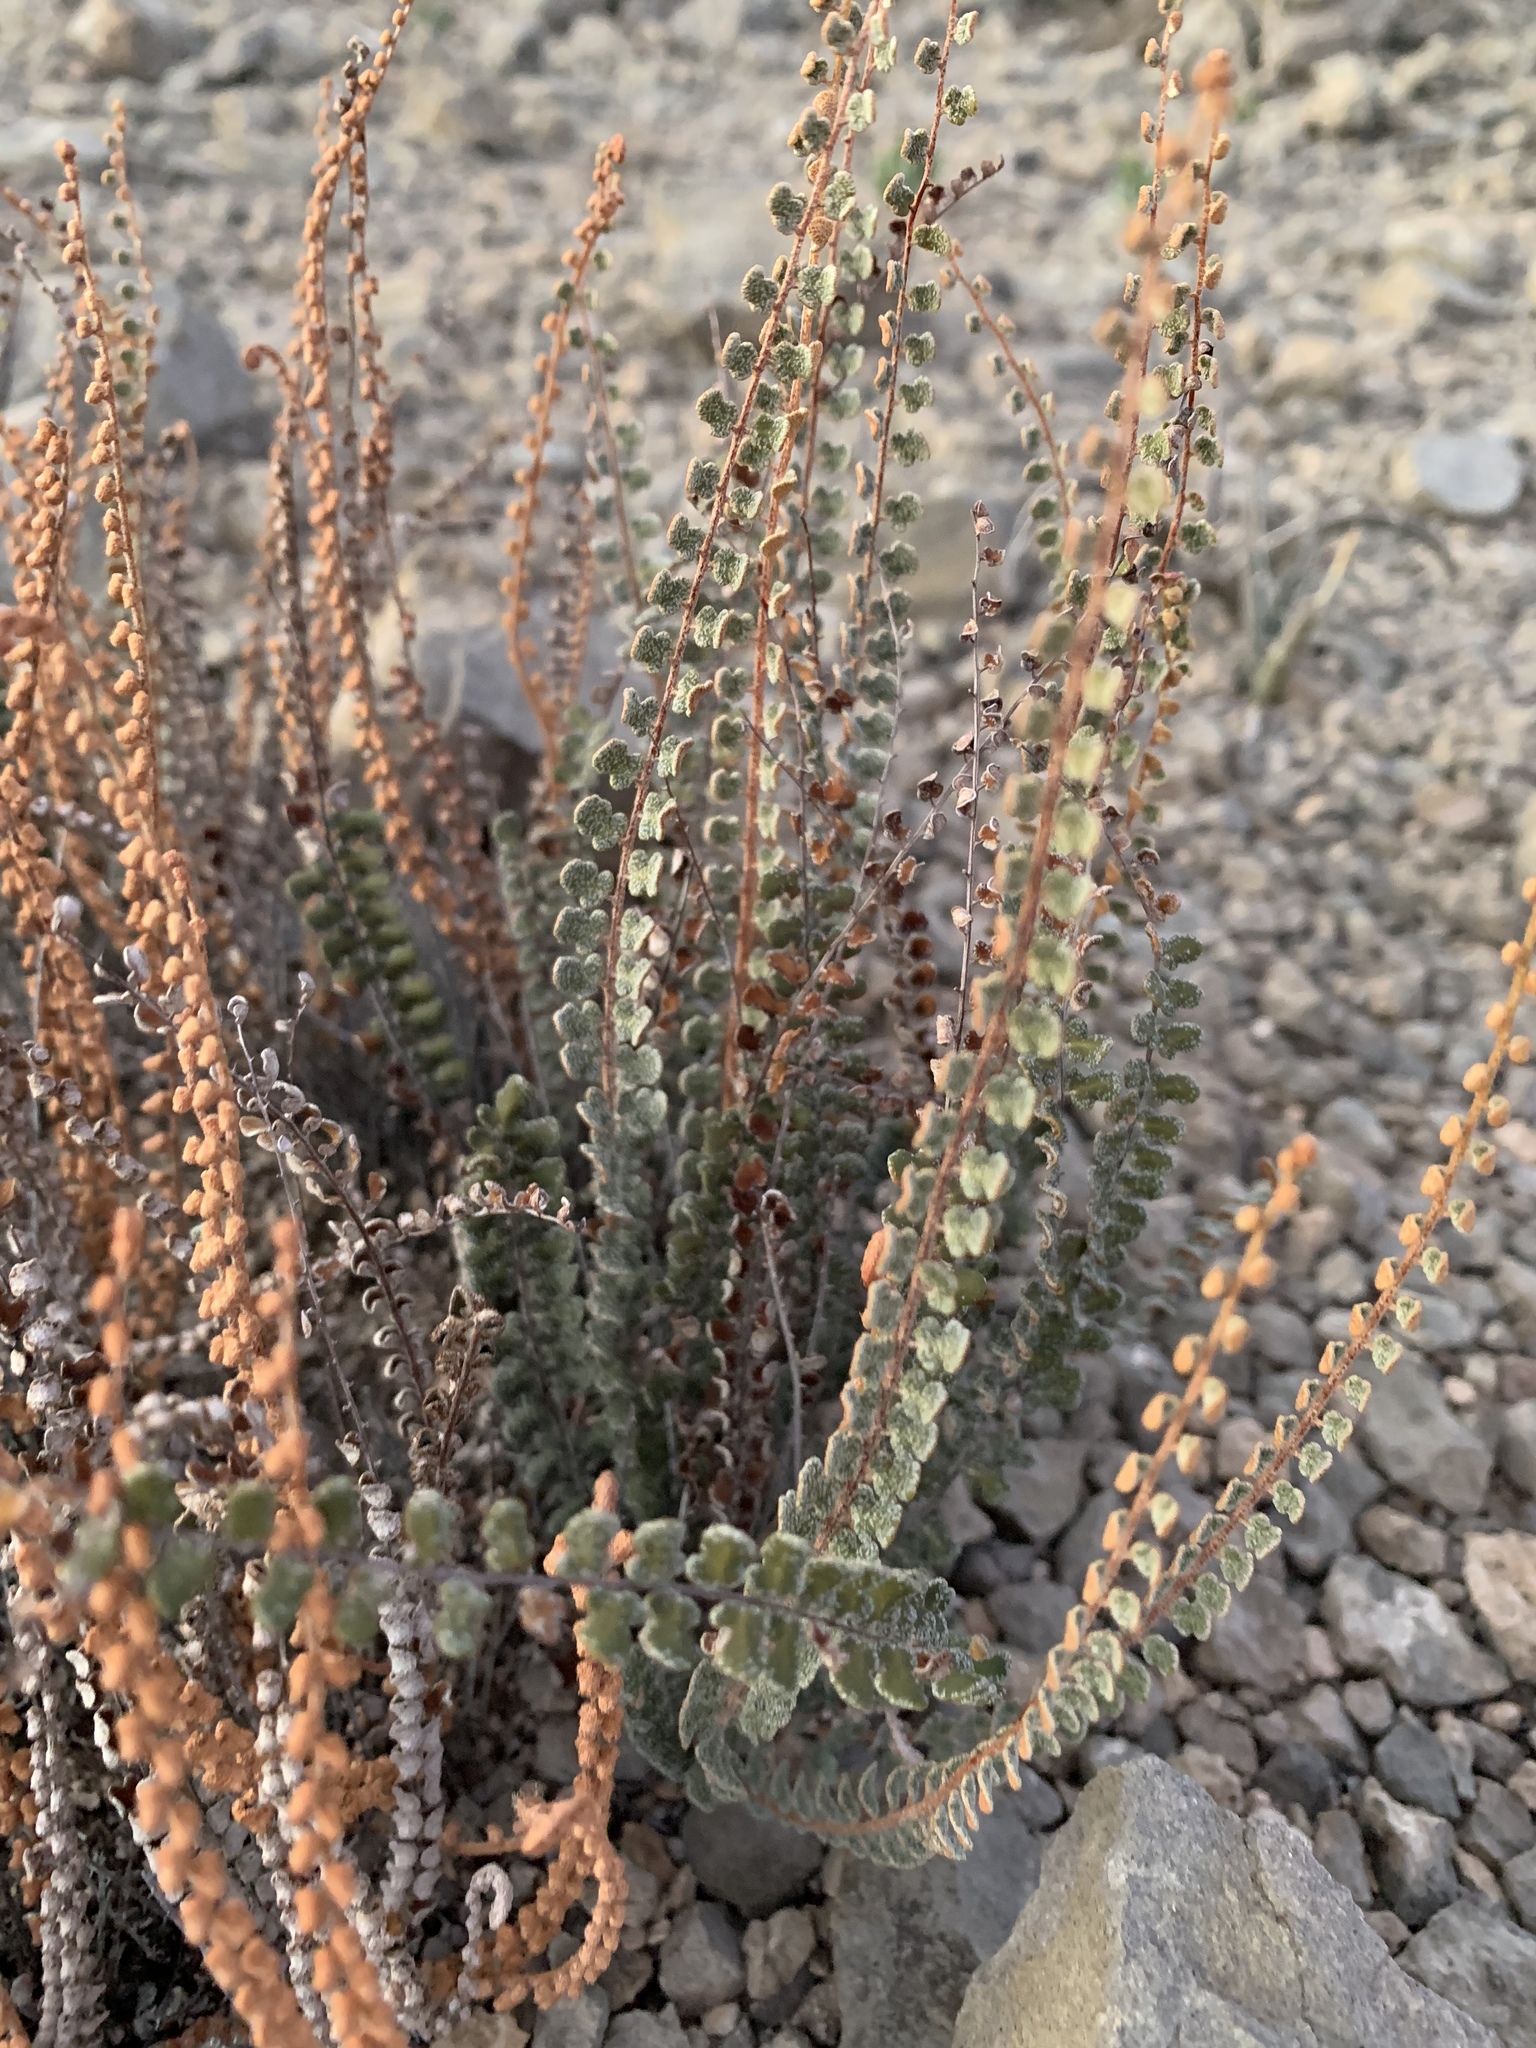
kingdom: Plantae
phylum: Tracheophyta
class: Polypodiopsida
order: Polypodiales
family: Pteridaceae
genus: Astrolepis
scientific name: Astrolepis cochisensis
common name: Scaly cloak fern
